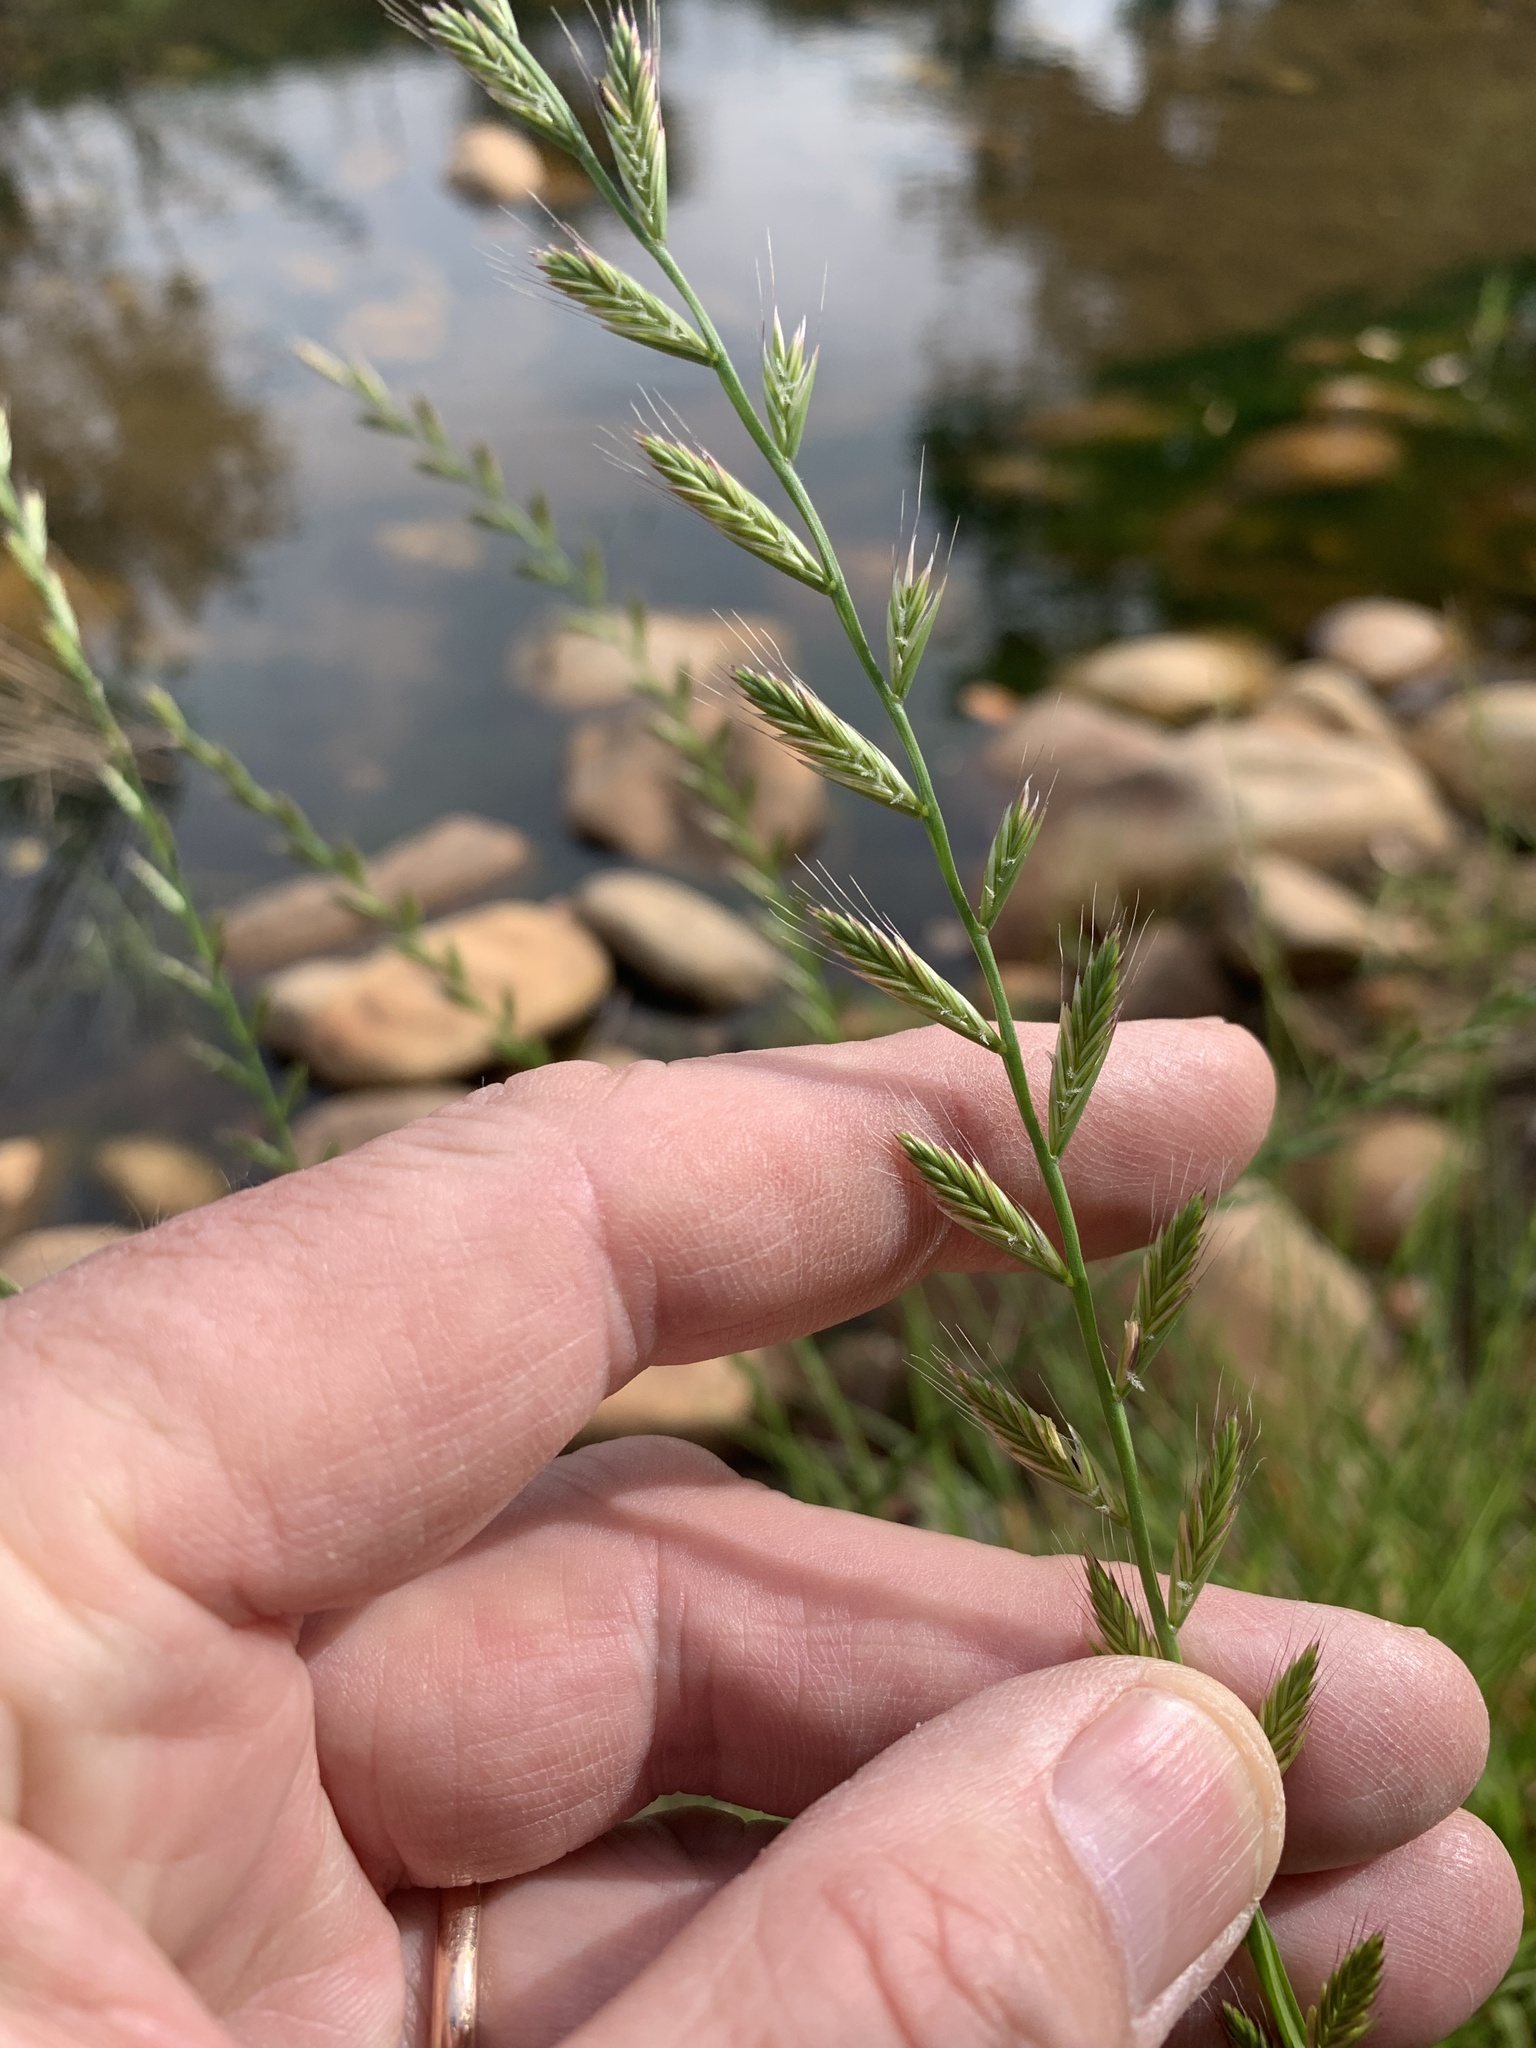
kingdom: Plantae
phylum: Tracheophyta
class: Liliopsida
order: Poales
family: Poaceae
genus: Lolium
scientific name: Lolium multiflorum
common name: Annual ryegrass
